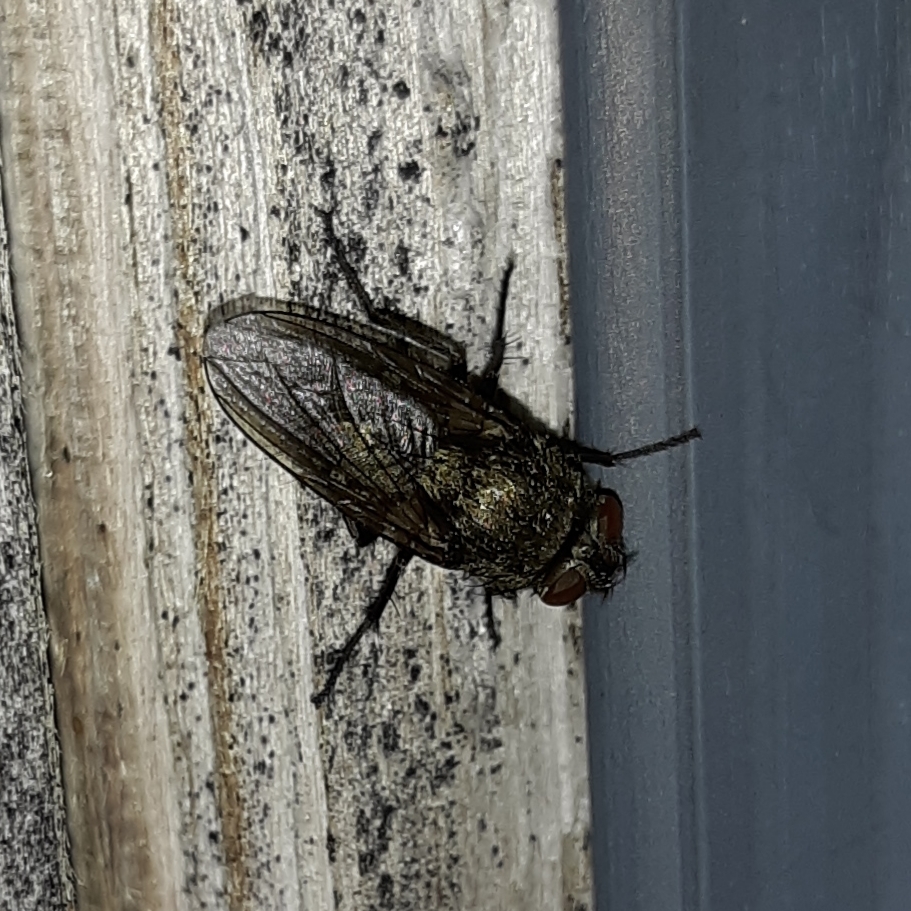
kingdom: Animalia
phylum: Arthropoda
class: Insecta
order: Diptera
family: Polleniidae
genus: Pollenia
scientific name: Pollenia
